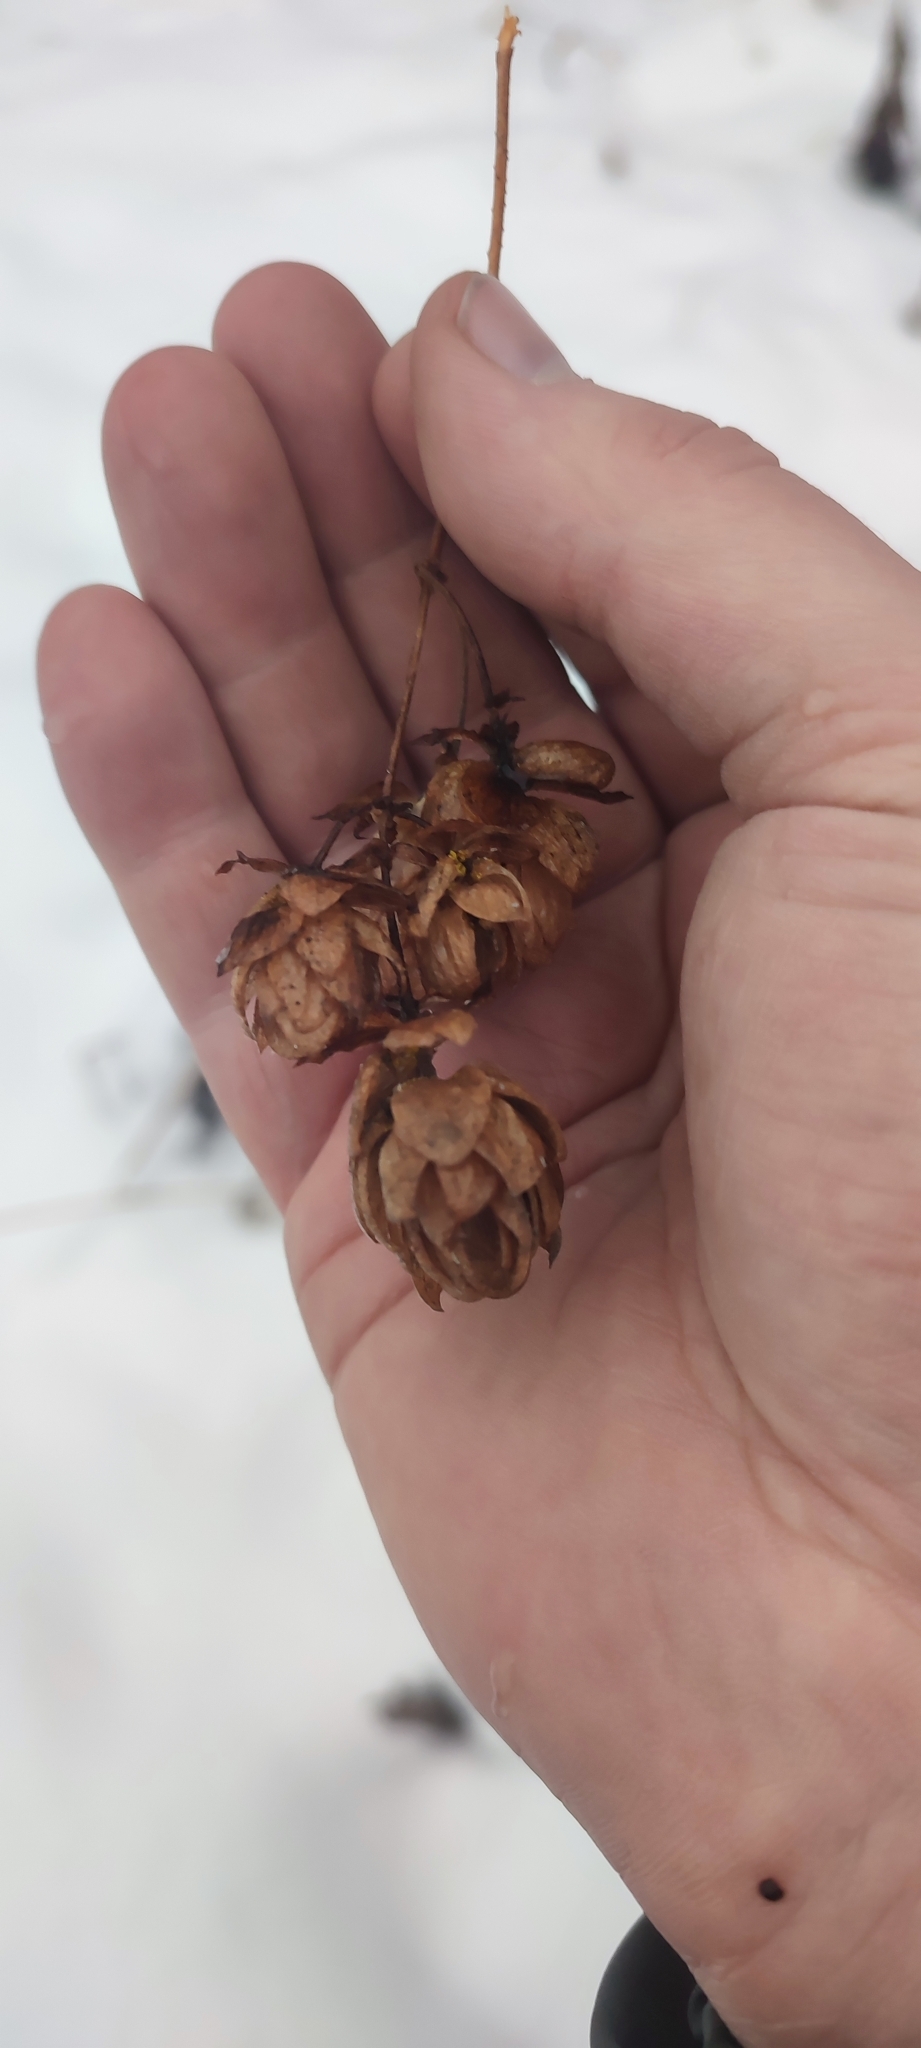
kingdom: Plantae
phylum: Tracheophyta
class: Magnoliopsida
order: Rosales
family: Cannabaceae
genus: Humulus
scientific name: Humulus lupulus
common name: Hop
